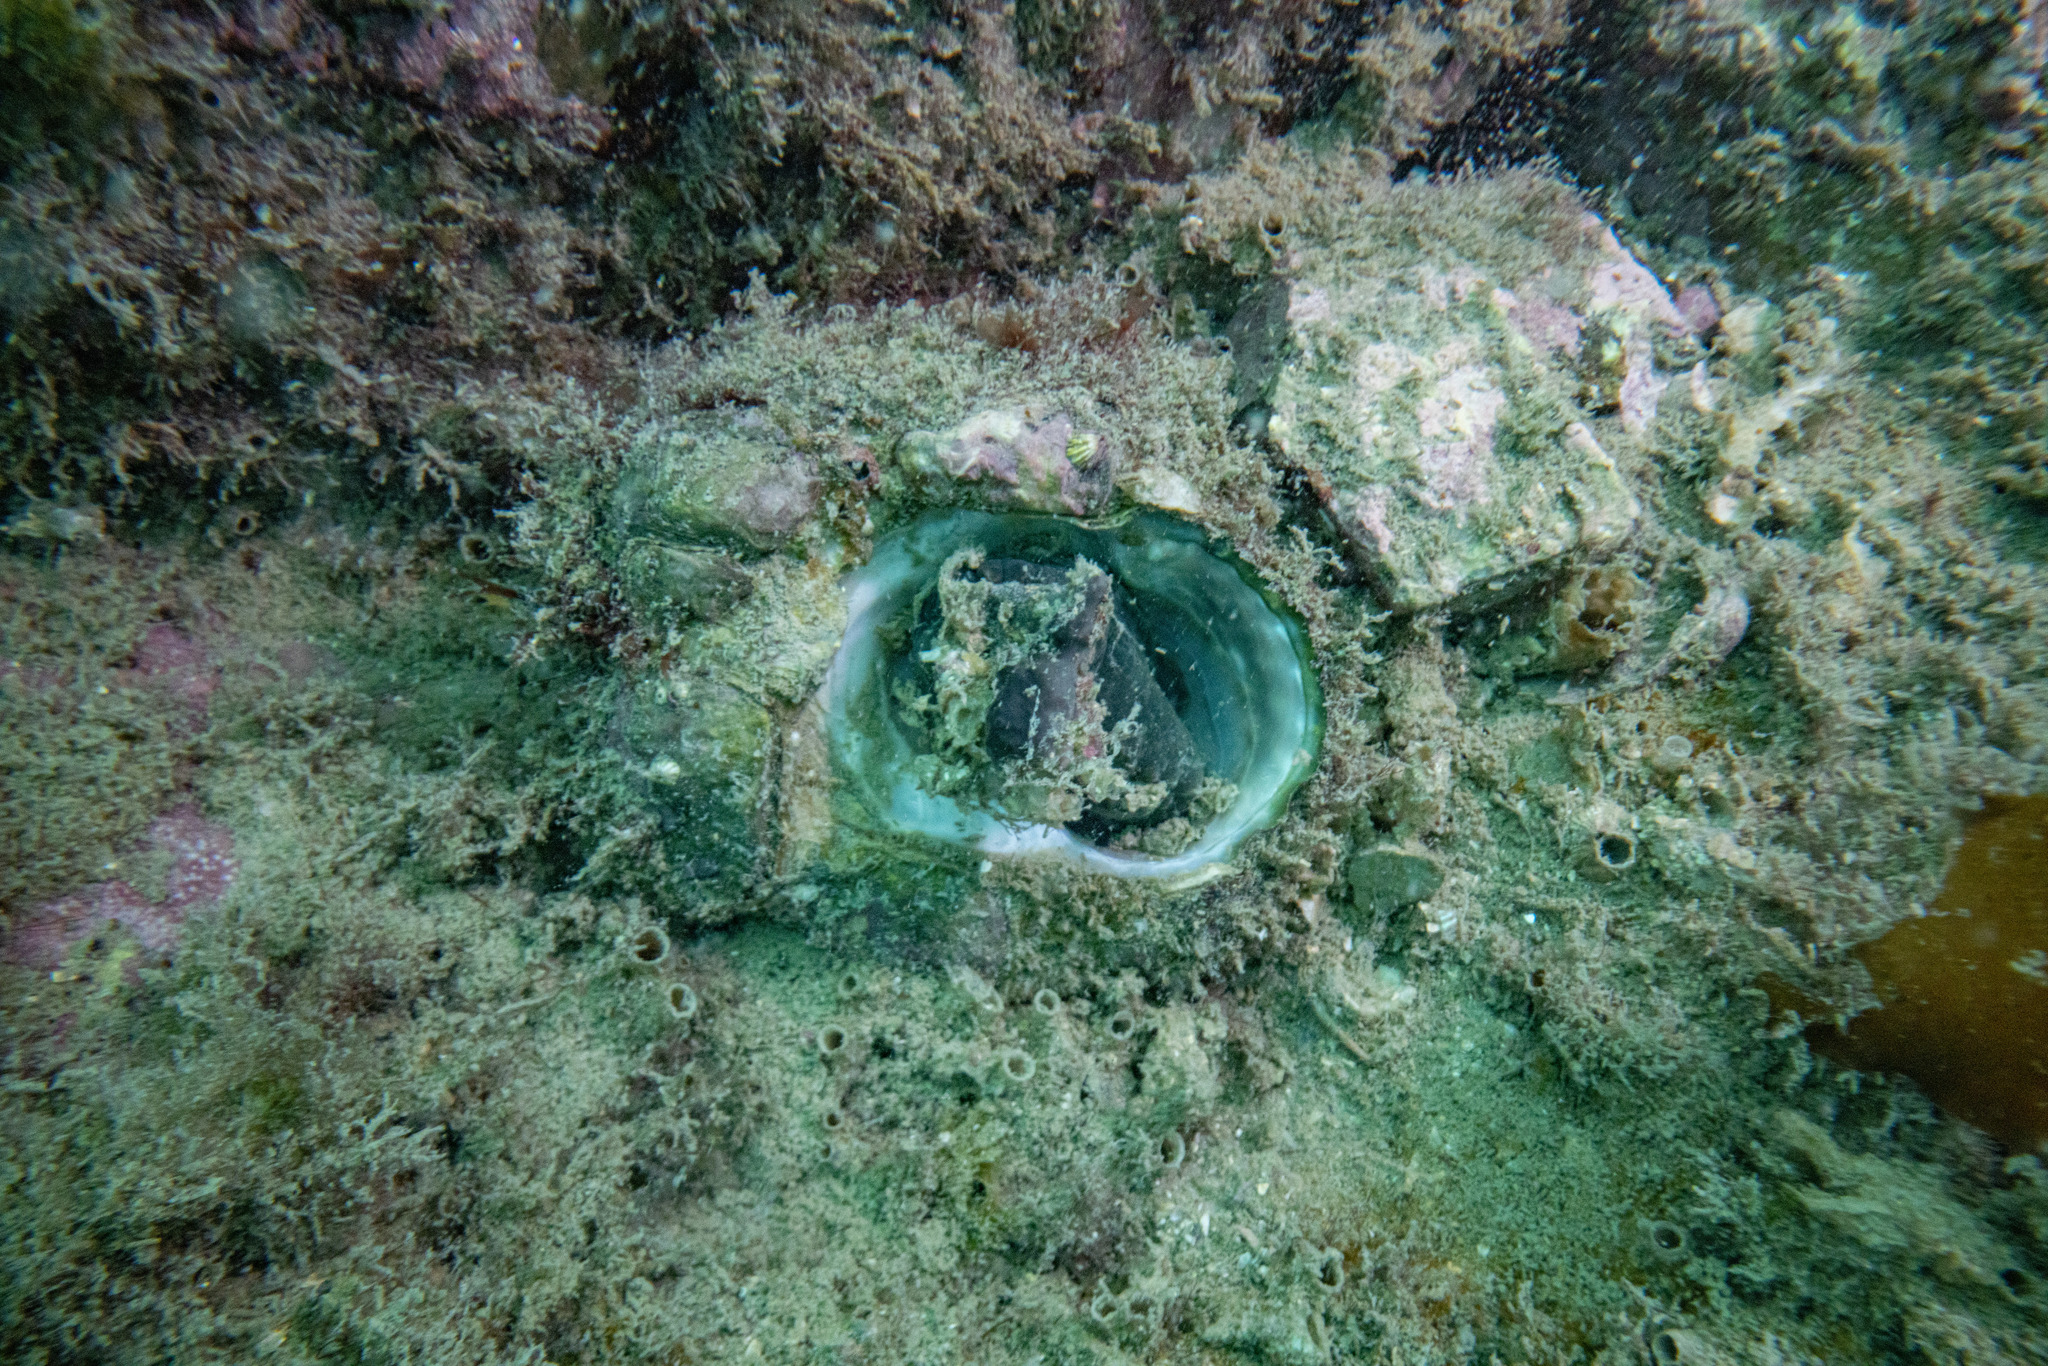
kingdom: Animalia
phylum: Mollusca
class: Gastropoda
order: Trochida
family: Turbinidae
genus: Cookia
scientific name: Cookia sulcata
